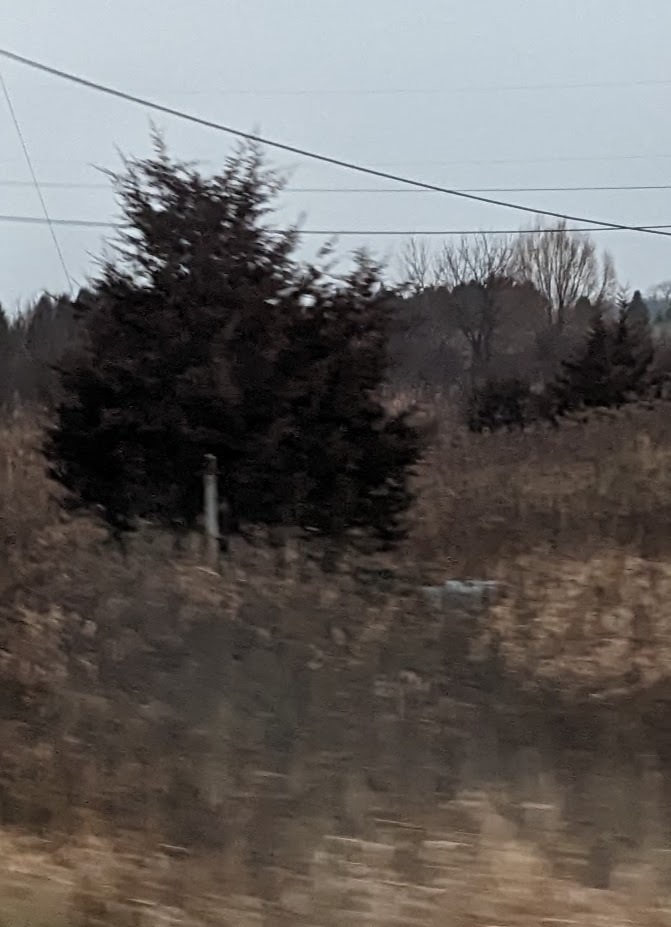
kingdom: Plantae
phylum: Tracheophyta
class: Pinopsida
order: Pinales
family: Cupressaceae
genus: Juniperus
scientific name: Juniperus virginiana
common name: Red juniper
